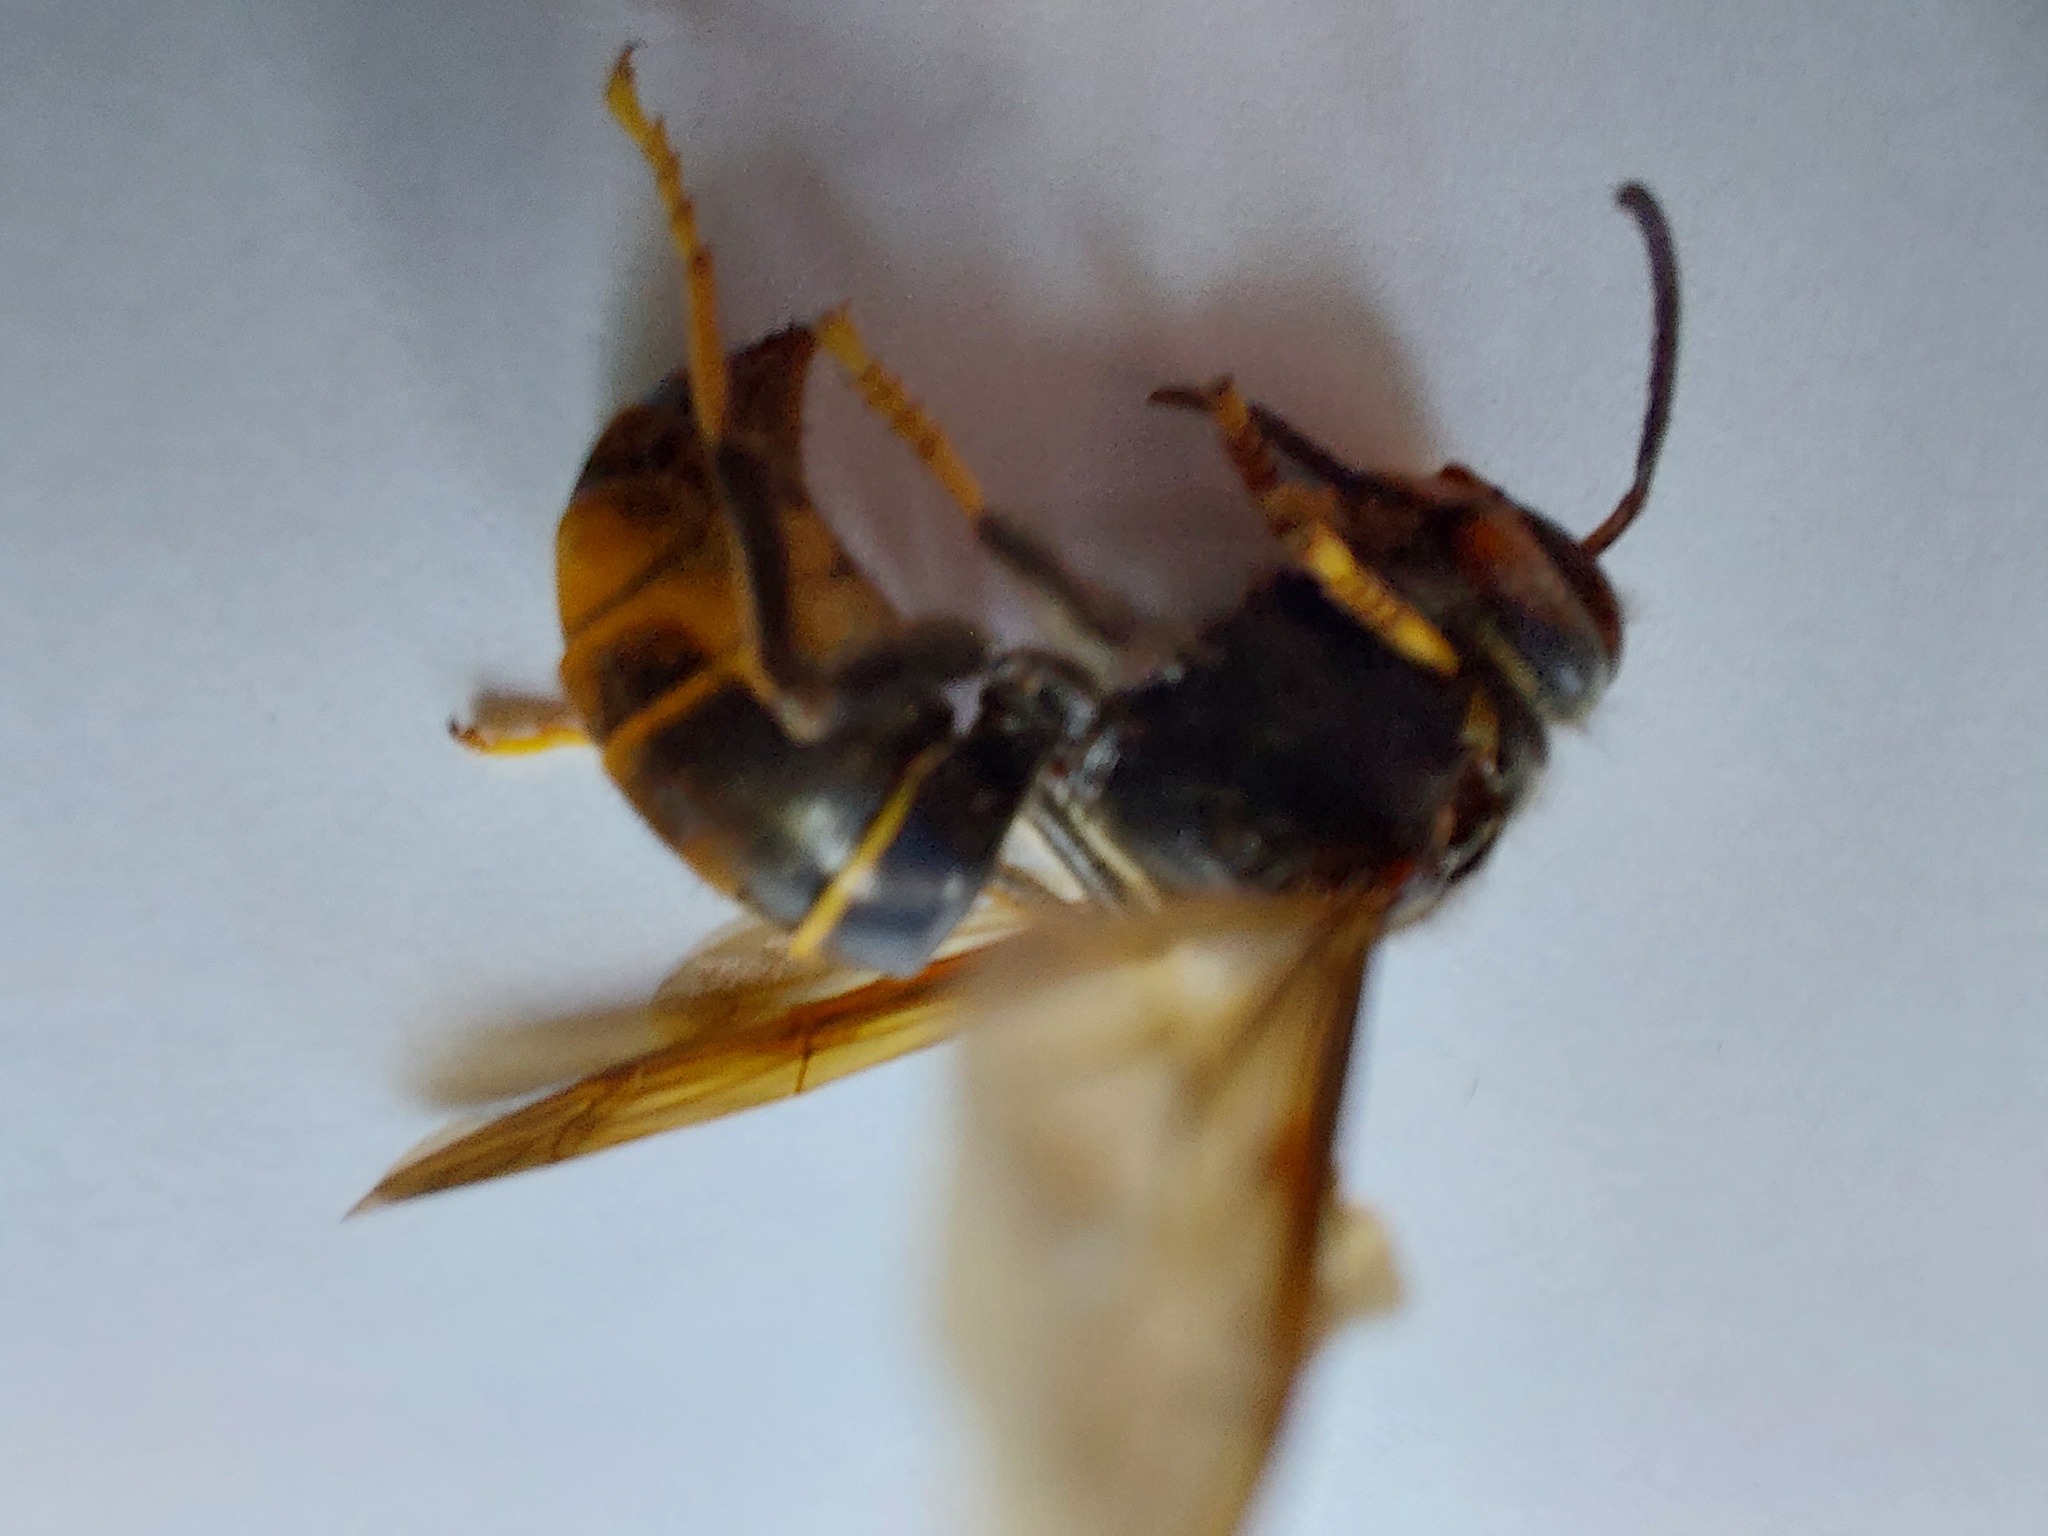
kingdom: Animalia
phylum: Arthropoda
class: Insecta
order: Hymenoptera
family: Vespidae
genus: Vespa
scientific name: Vespa velutina
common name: Asian hornet
